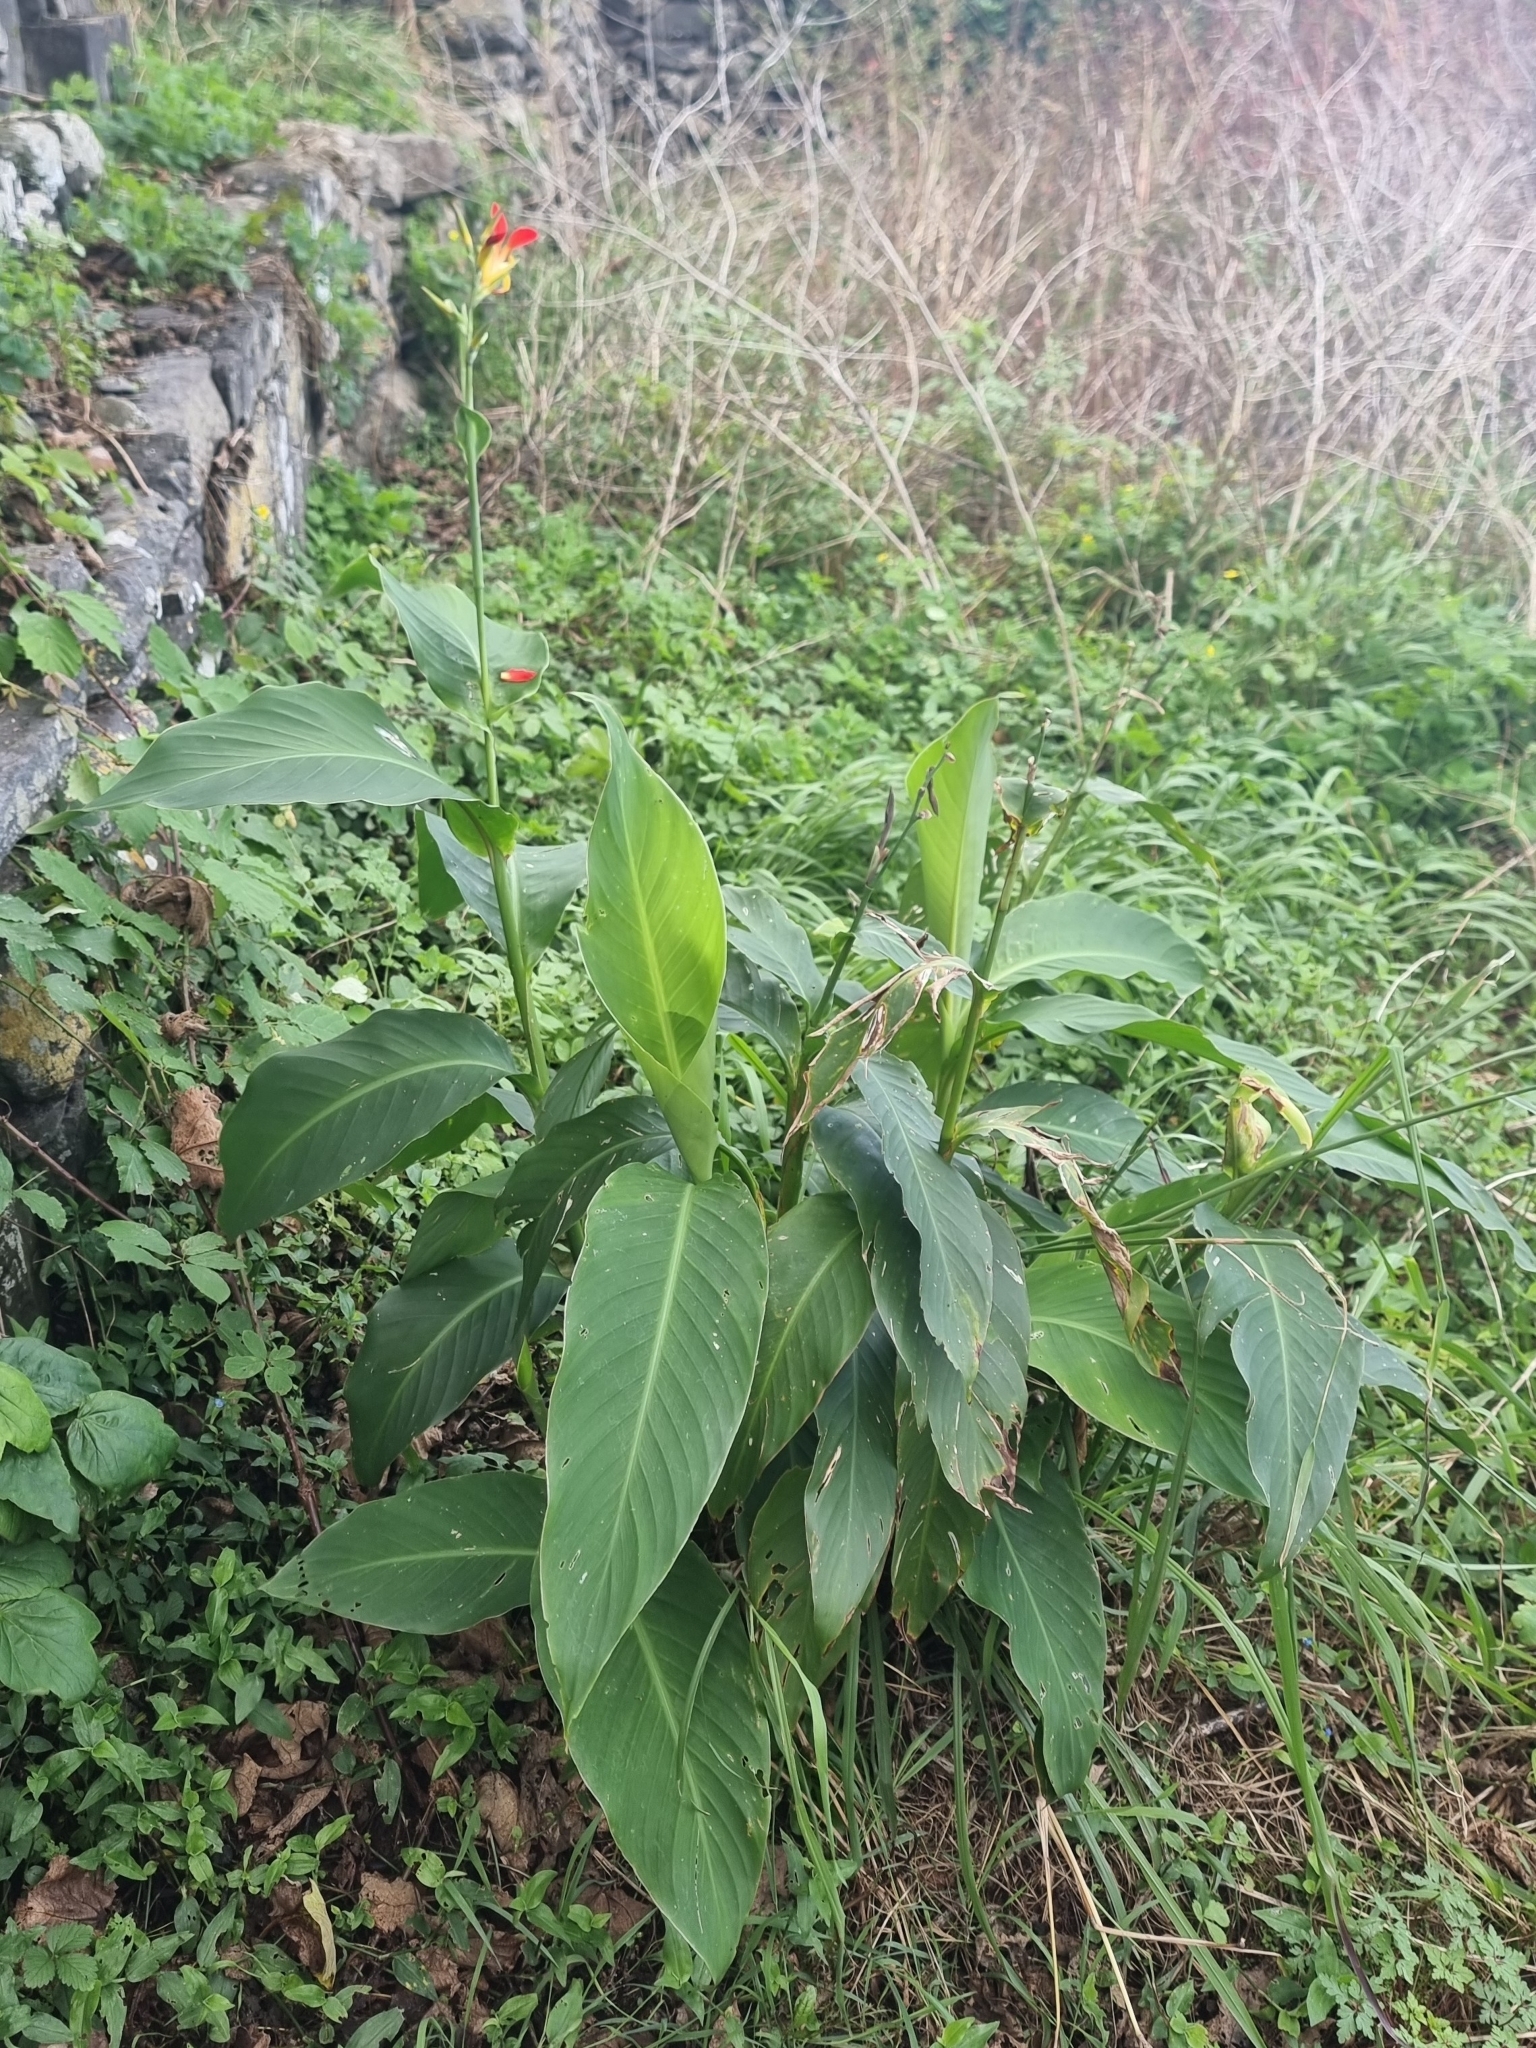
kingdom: Plantae
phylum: Tracheophyta
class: Liliopsida
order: Zingiberales
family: Cannaceae
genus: Canna
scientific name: Canna indica
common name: Indian shot
